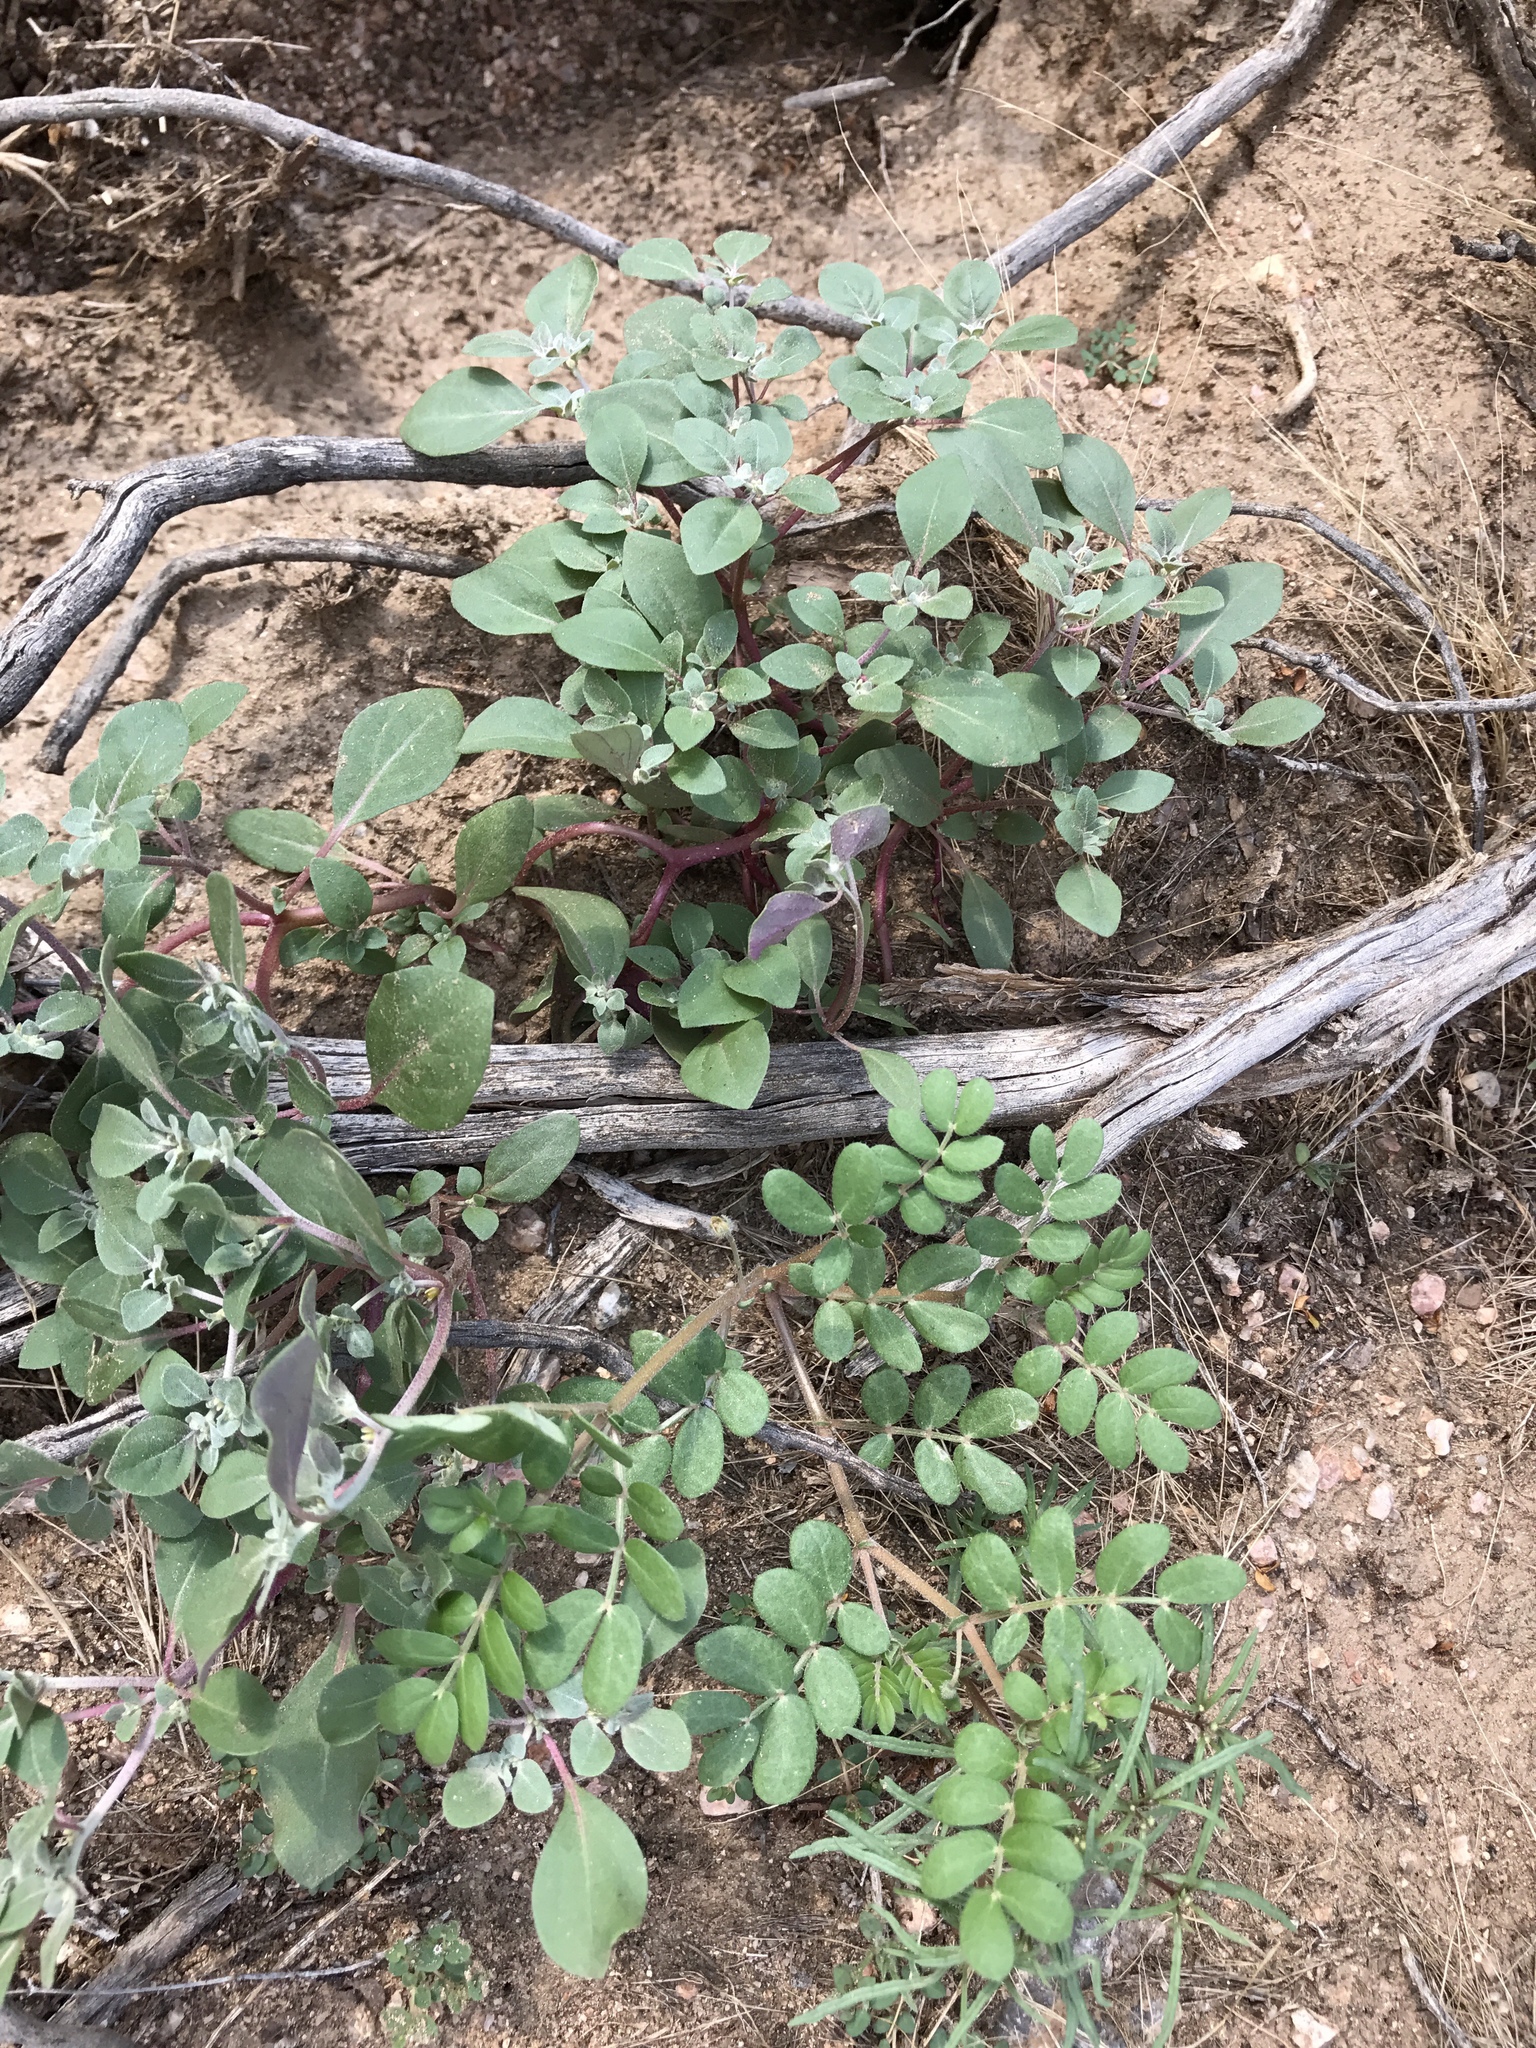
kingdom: Plantae
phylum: Tracheophyta
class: Magnoliopsida
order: Caryophyllales
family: Amaranthaceae
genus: Tidestromia
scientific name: Tidestromia lanuginosa
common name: Woolly tidestromia
